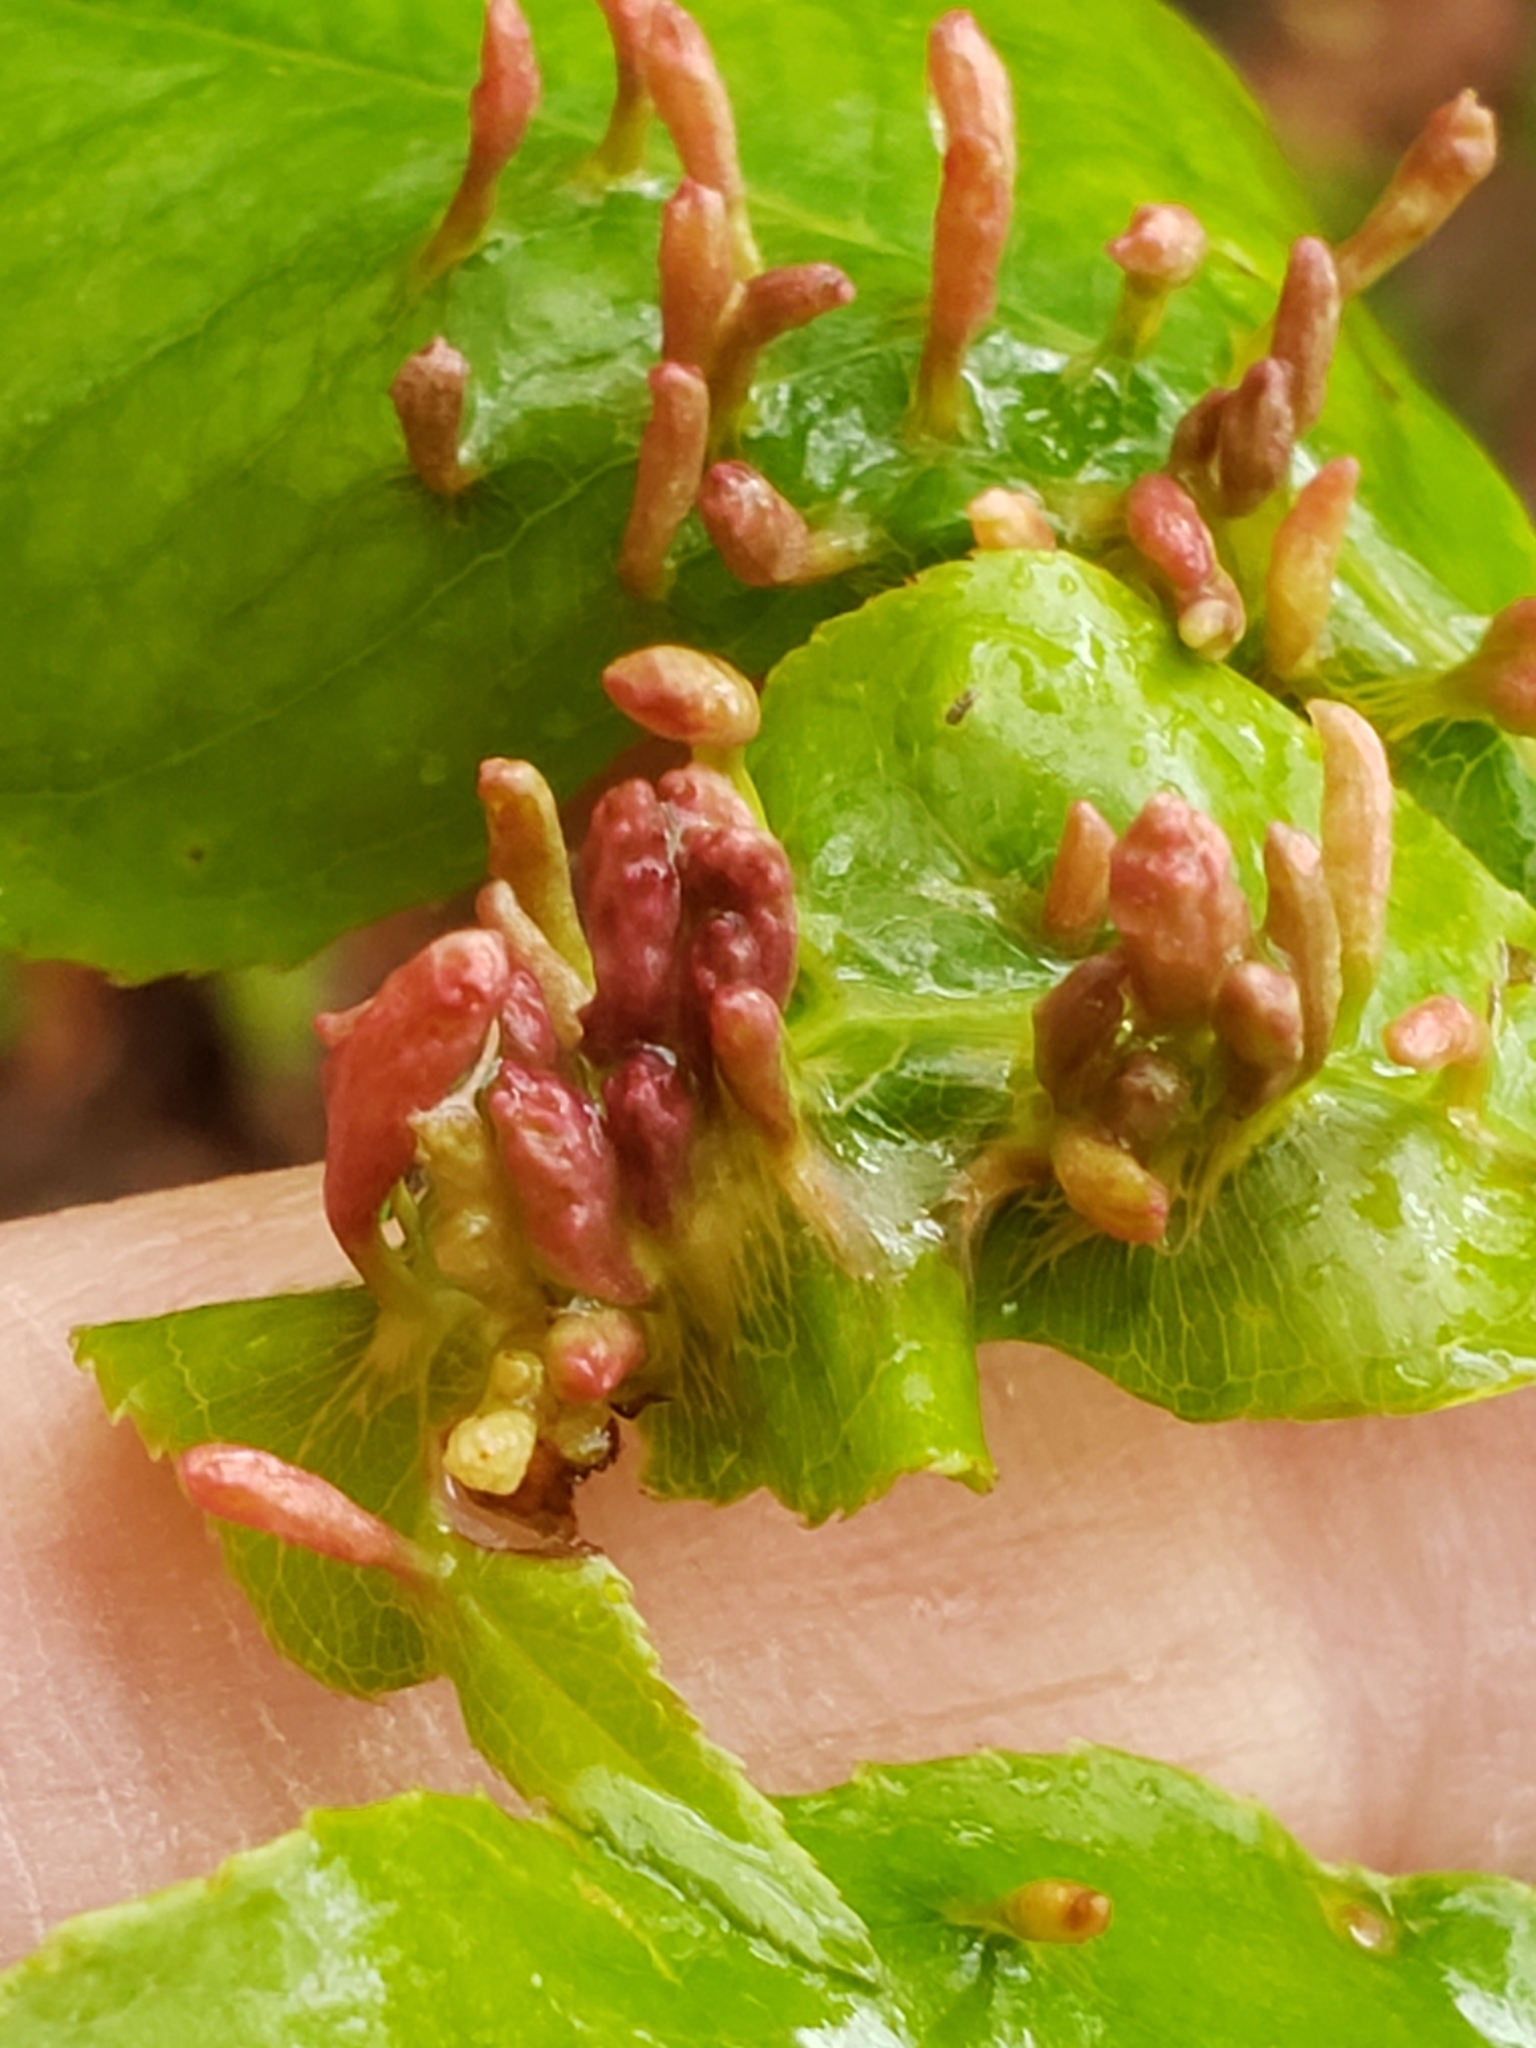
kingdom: Animalia
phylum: Arthropoda
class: Arachnida
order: Trombidiformes
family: Eriophyidae
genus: Eriophyes
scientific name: Eriophyes
